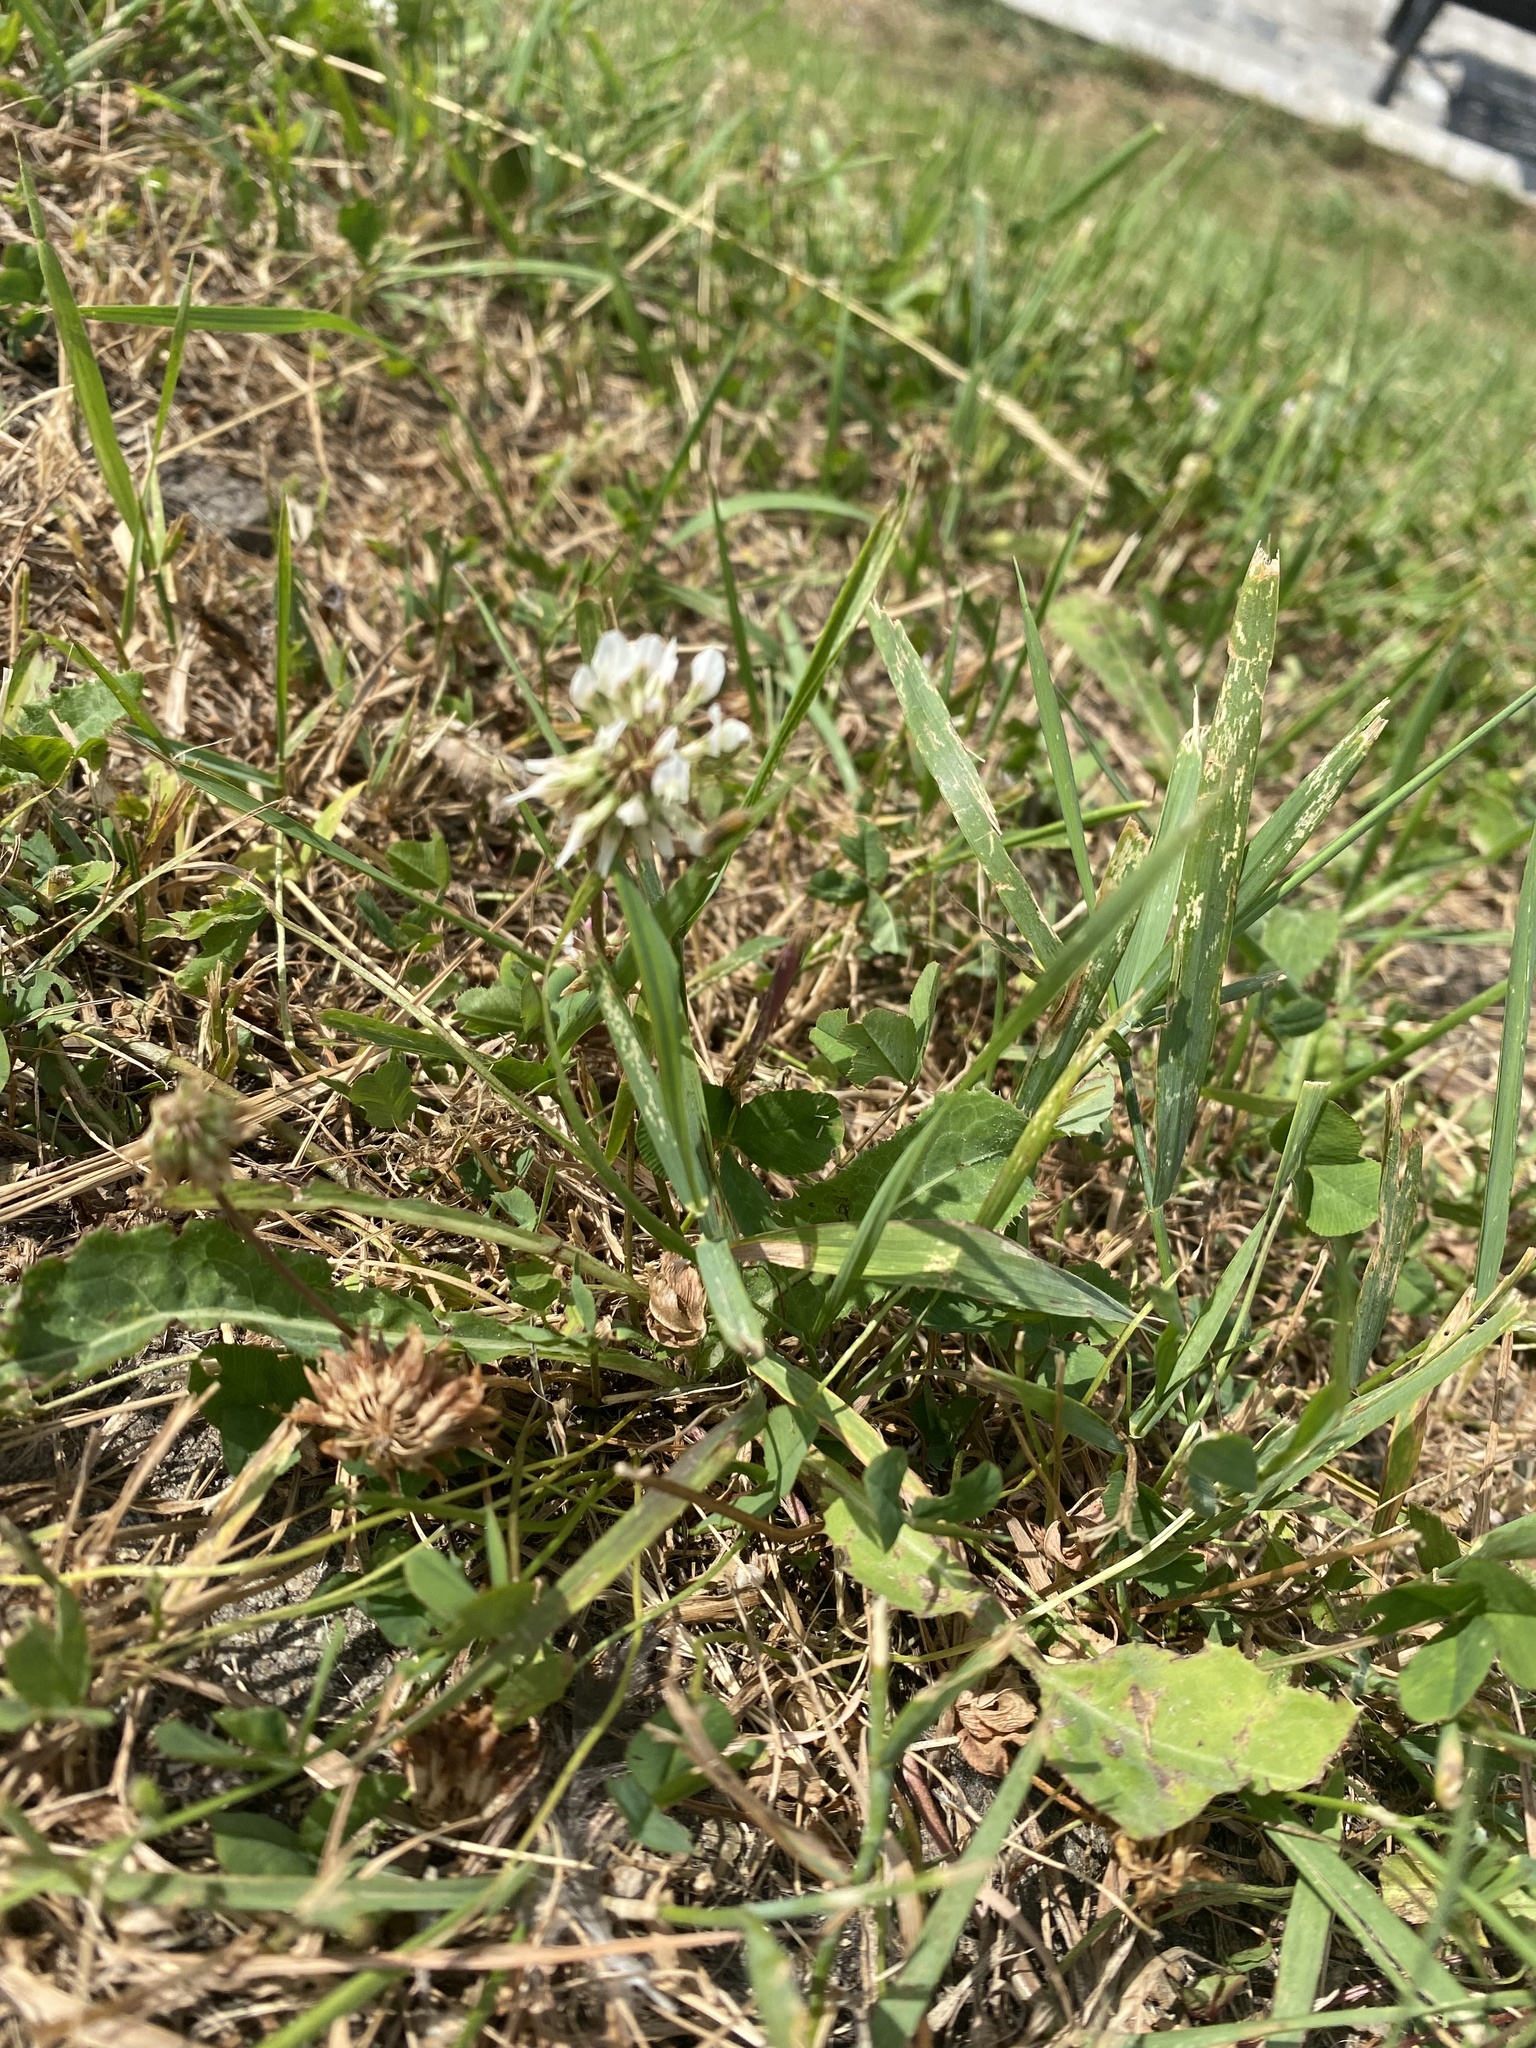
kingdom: Plantae
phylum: Tracheophyta
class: Magnoliopsida
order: Fabales
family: Fabaceae
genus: Trifolium
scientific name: Trifolium repens
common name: White clover
